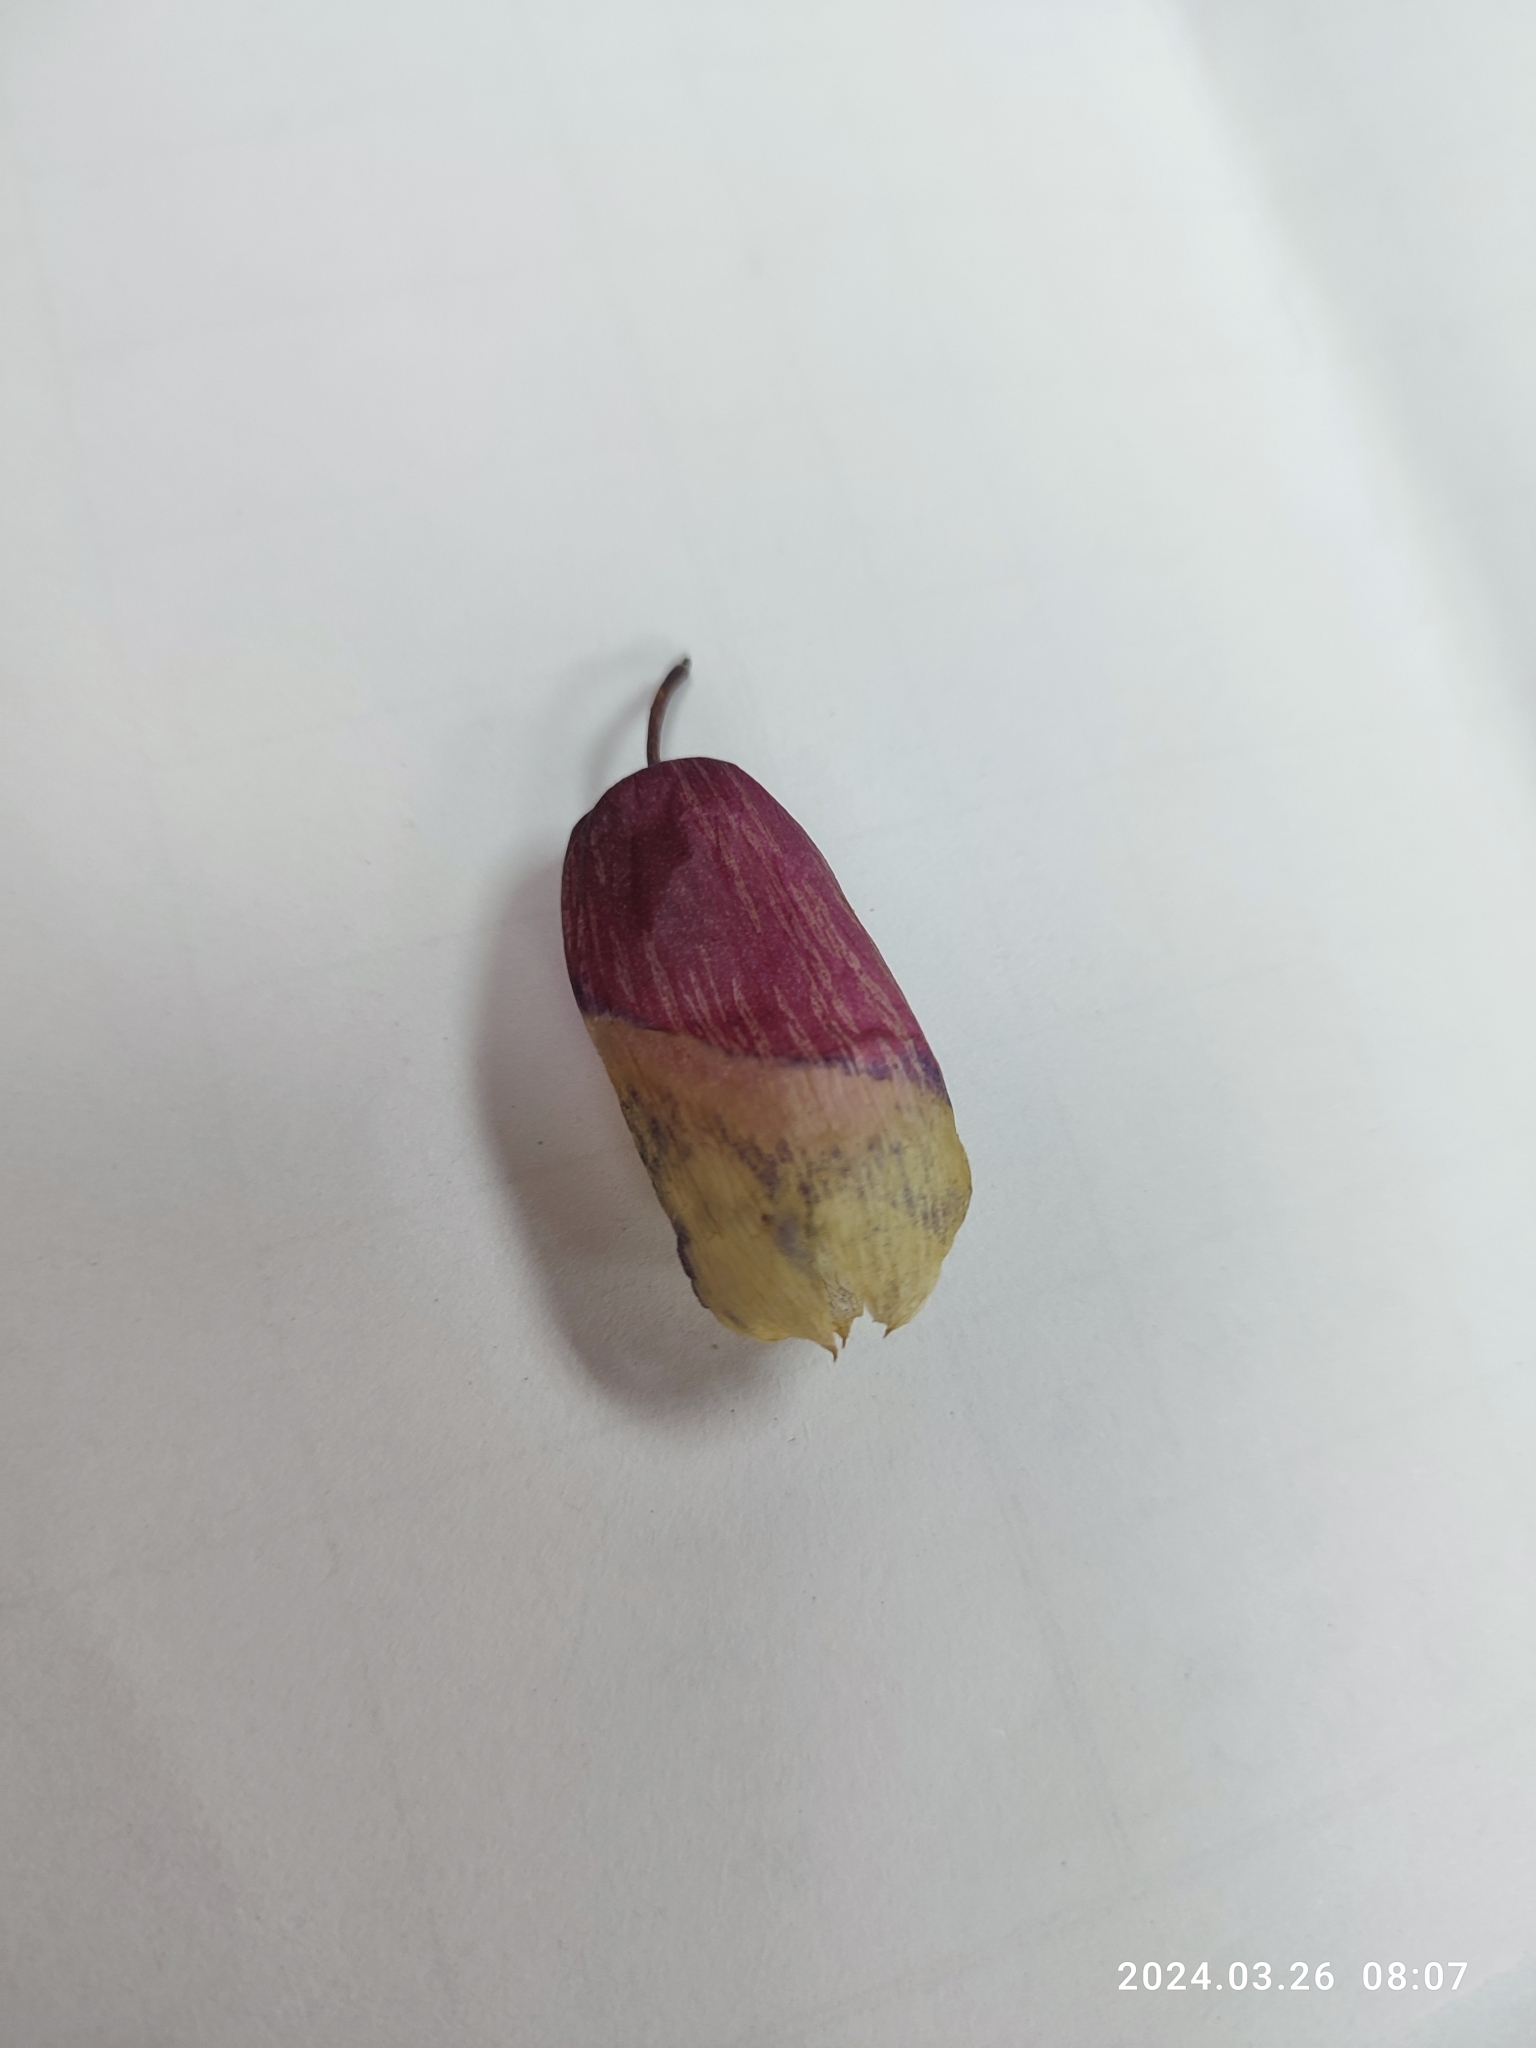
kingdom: Plantae
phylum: Tracheophyta
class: Magnoliopsida
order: Saxifragales
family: Crassulaceae
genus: Kalanchoe
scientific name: Kalanchoe pinnata
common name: Cathedral bells
